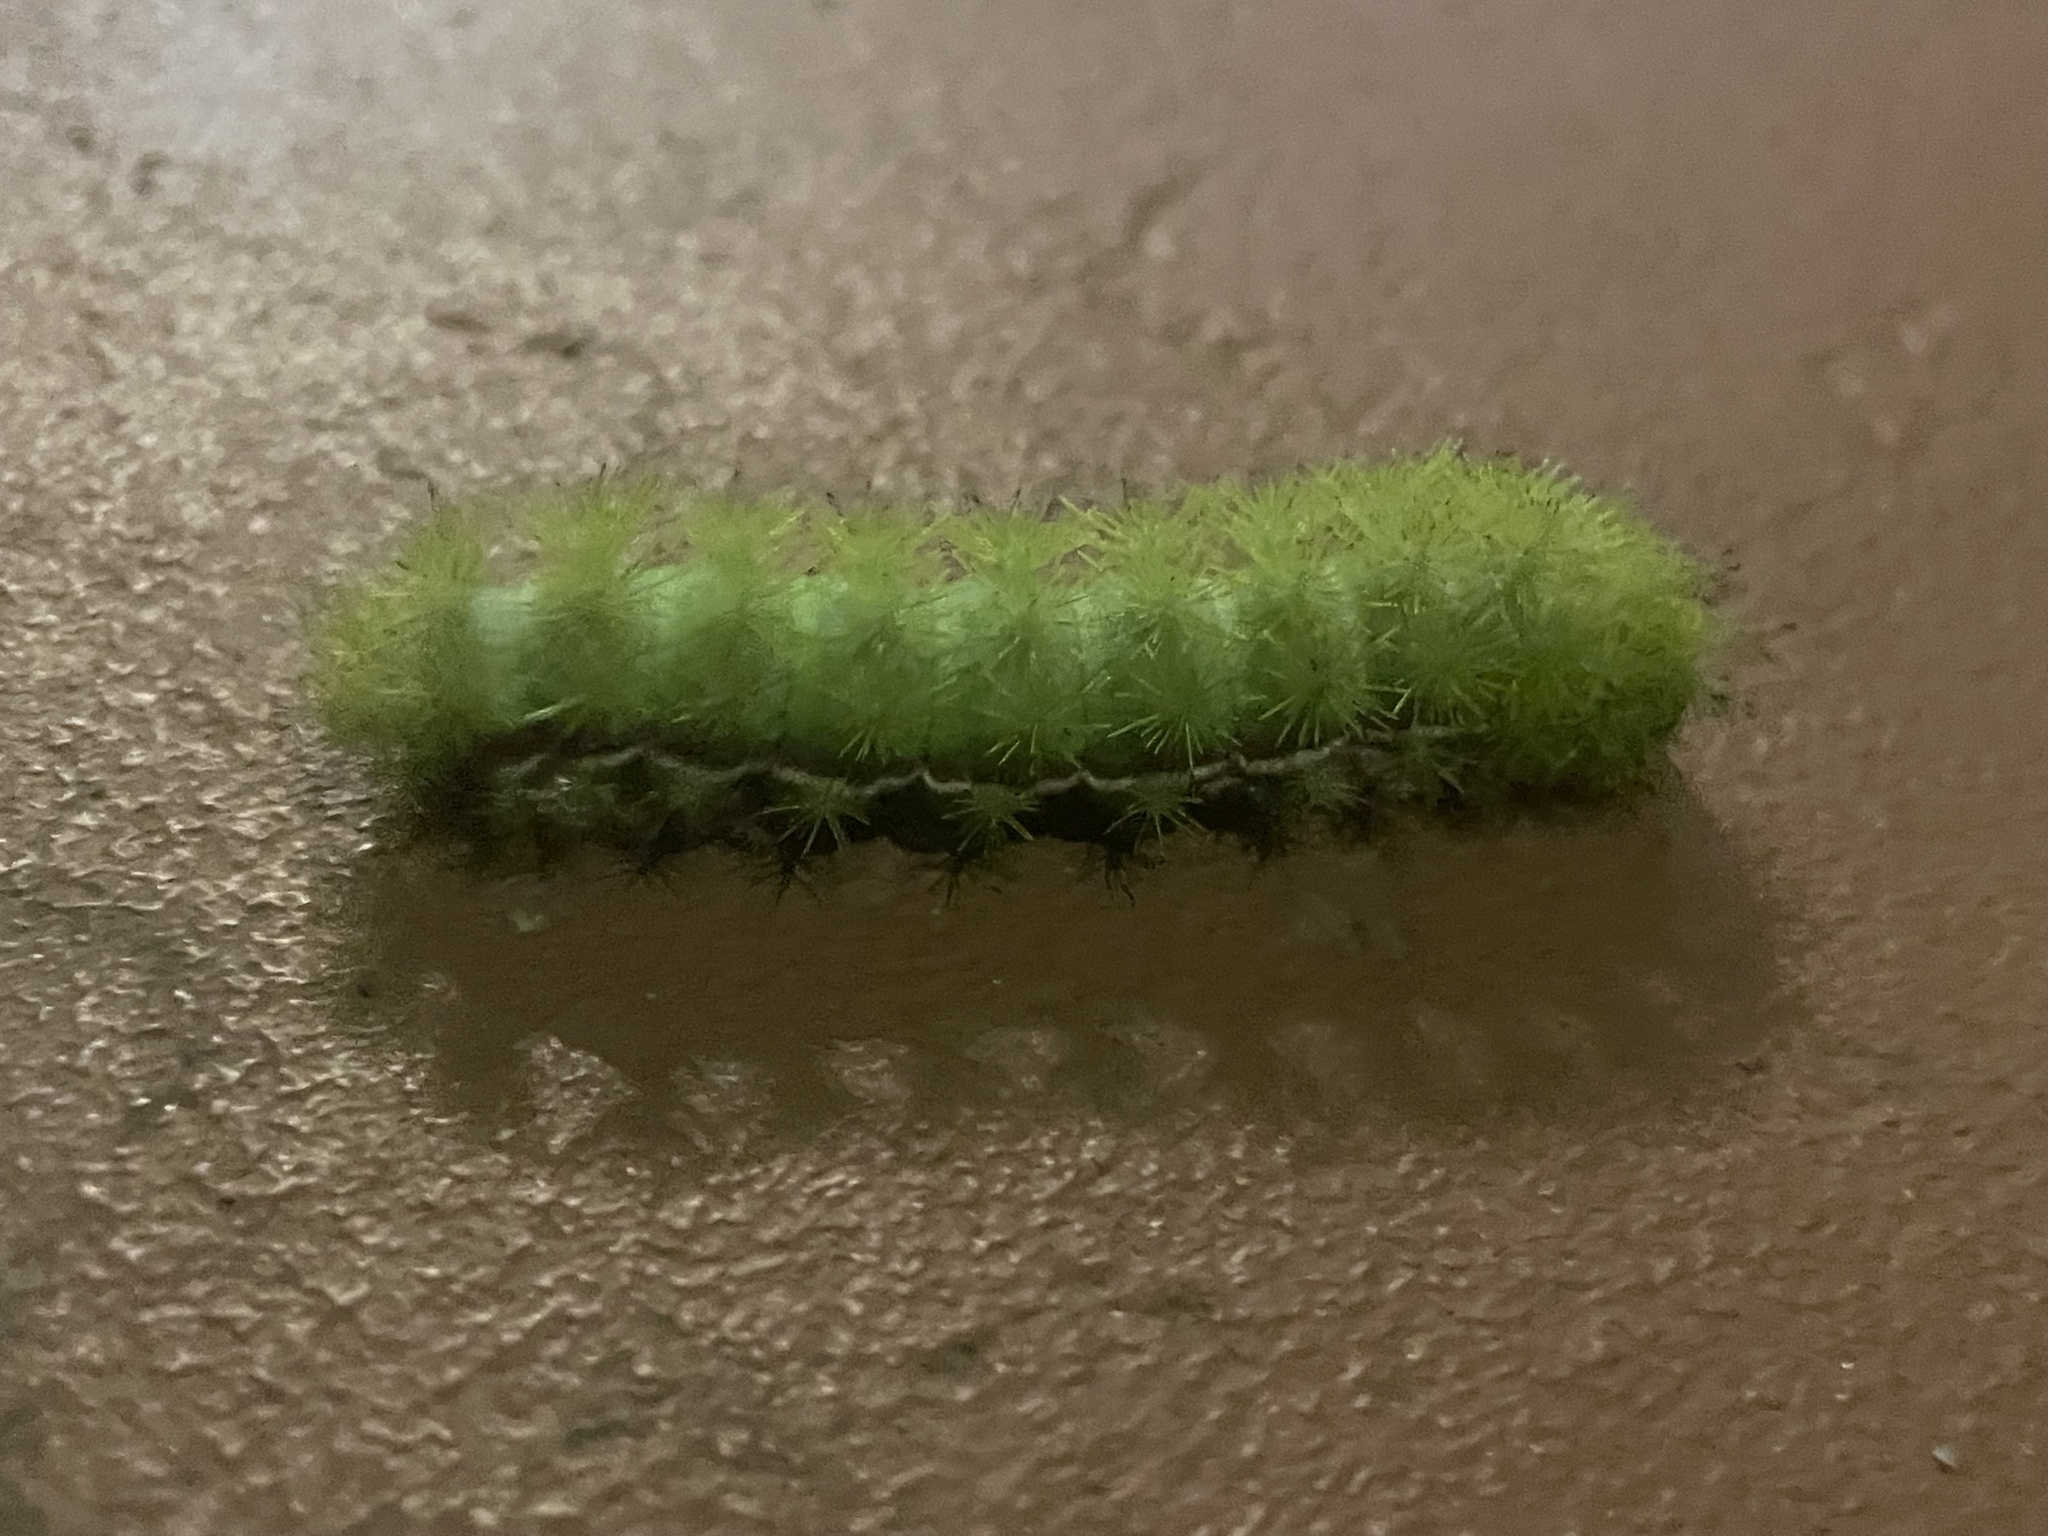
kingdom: Animalia
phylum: Arthropoda
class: Insecta
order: Lepidoptera
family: Saturniidae
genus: Automeris
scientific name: Automeris io
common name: Io moth
